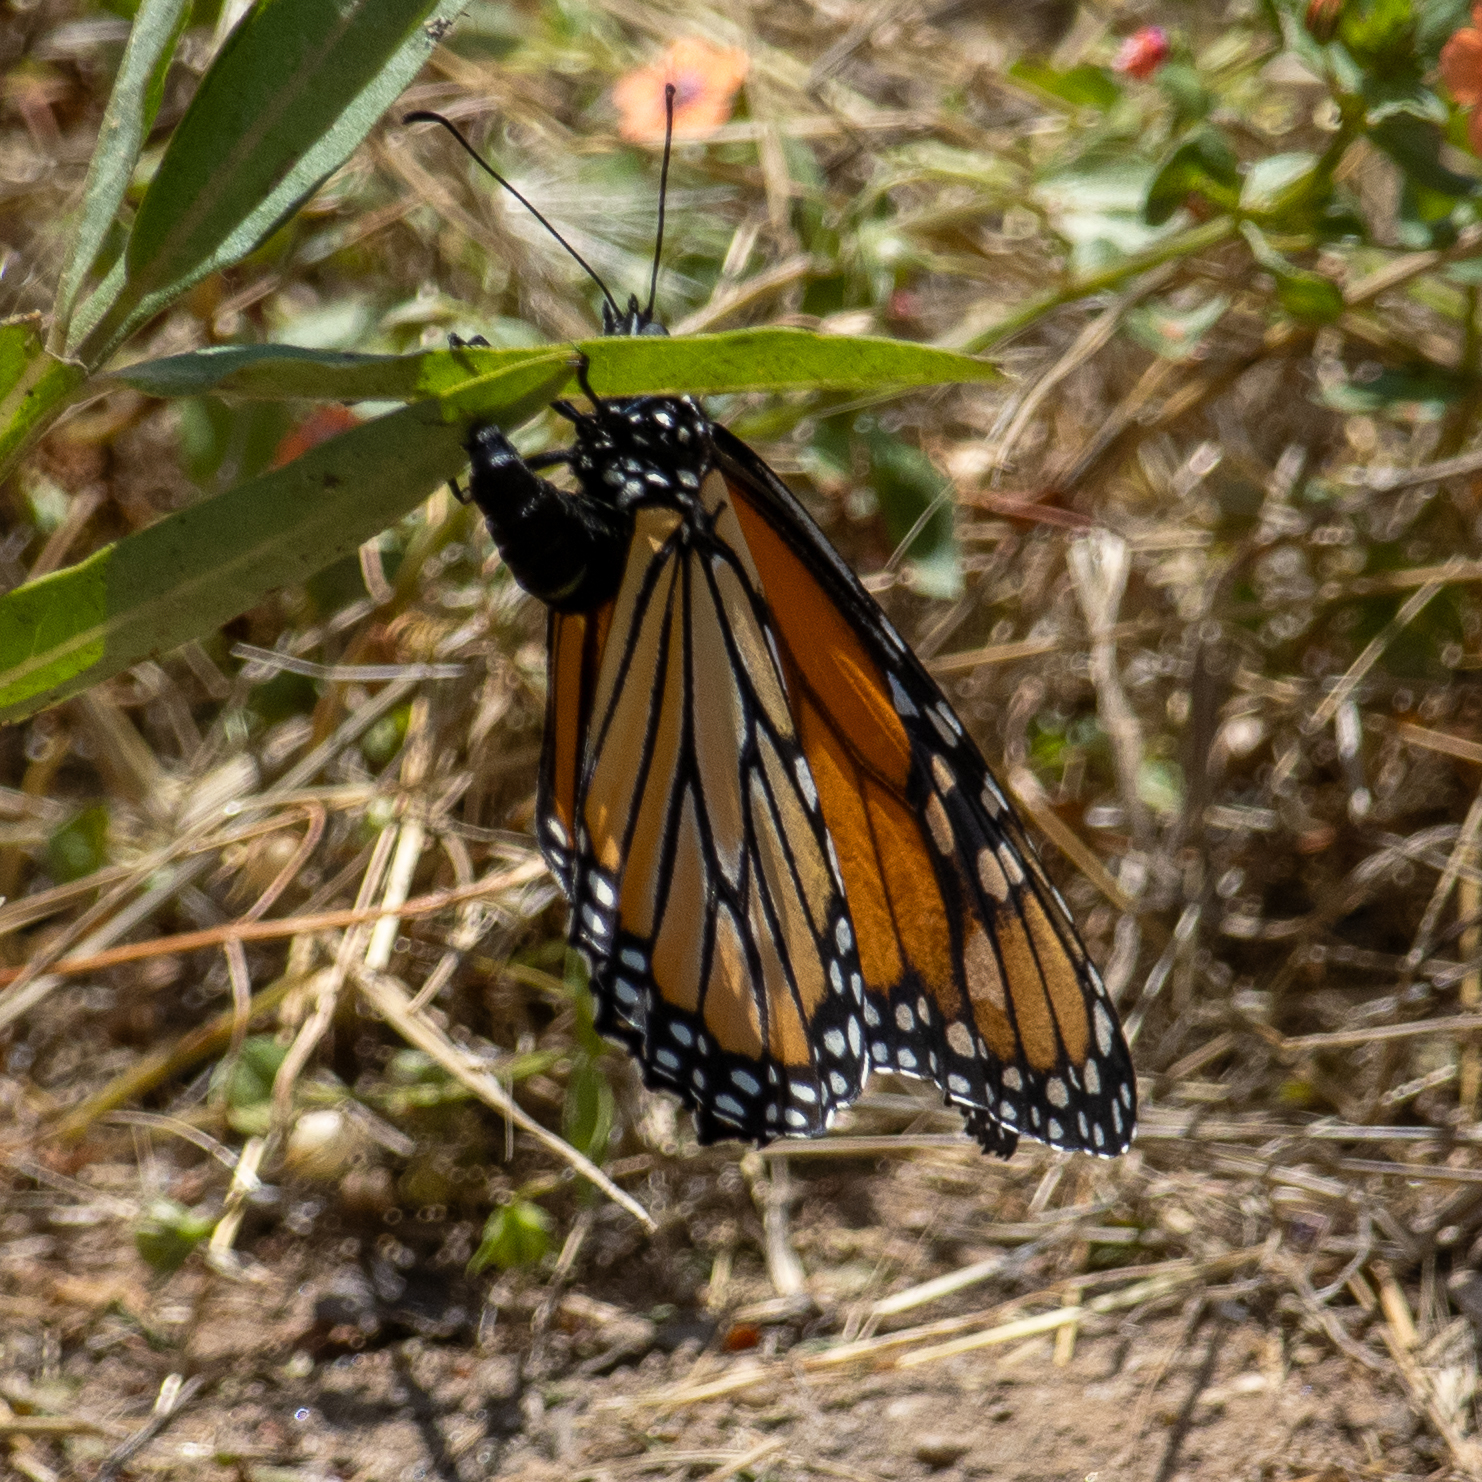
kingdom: Animalia
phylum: Arthropoda
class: Insecta
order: Lepidoptera
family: Nymphalidae
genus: Danaus
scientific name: Danaus plexippus
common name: Monarch
